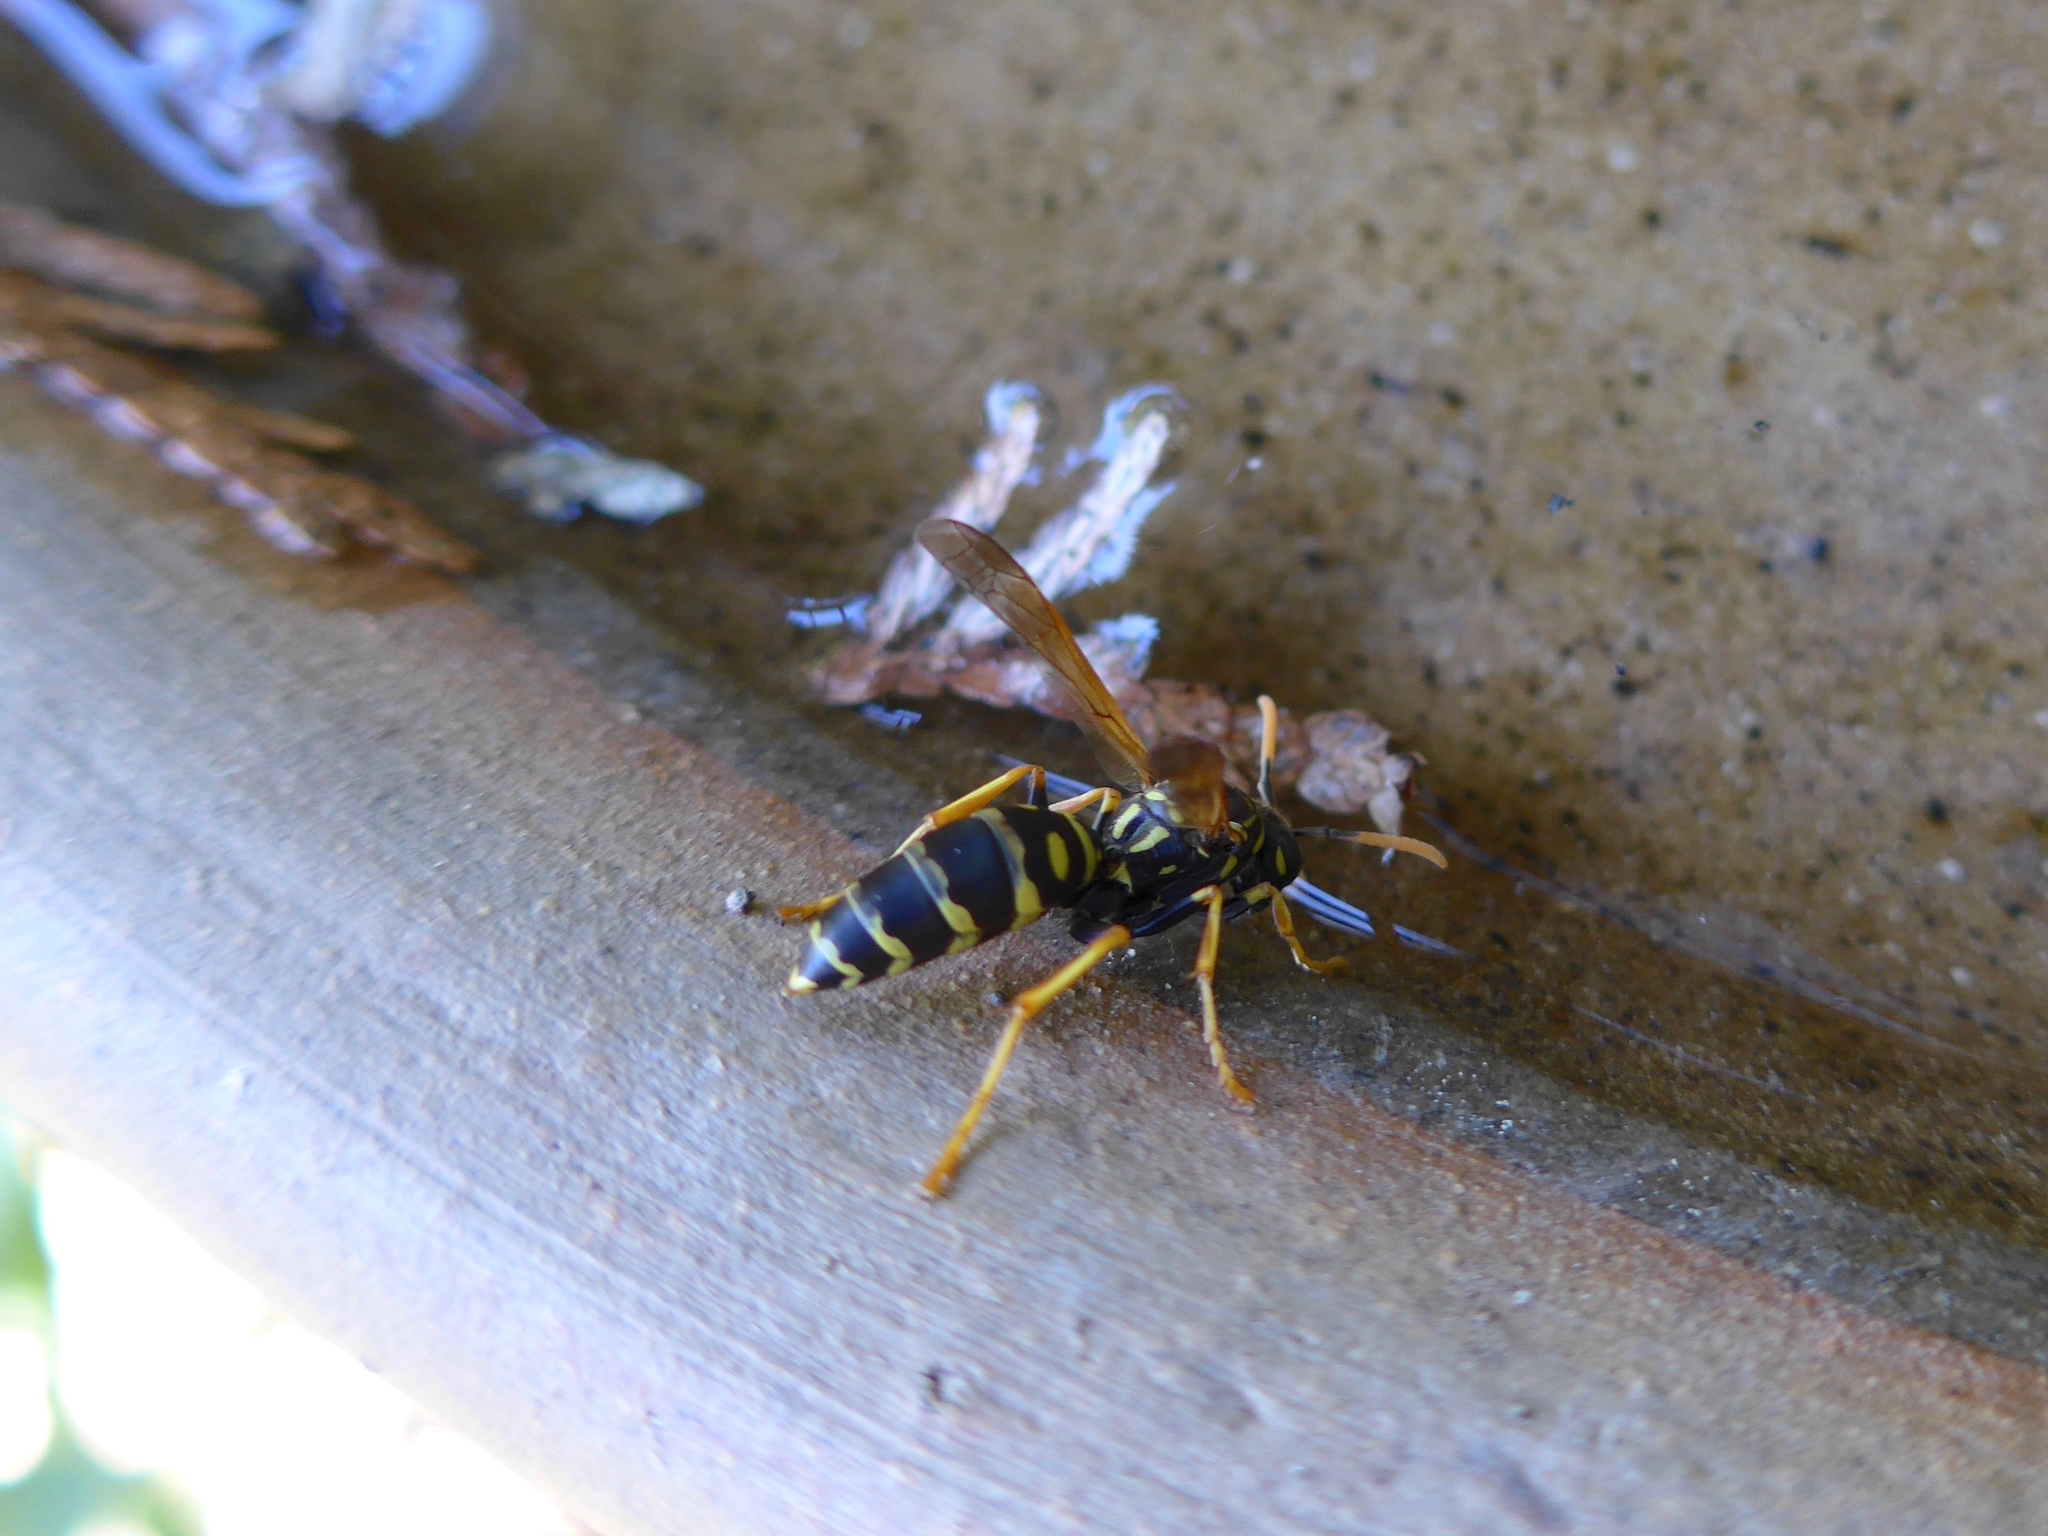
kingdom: Animalia
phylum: Arthropoda
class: Insecta
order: Hymenoptera
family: Eumenidae
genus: Polistes
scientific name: Polistes dominula
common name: Paper wasp
